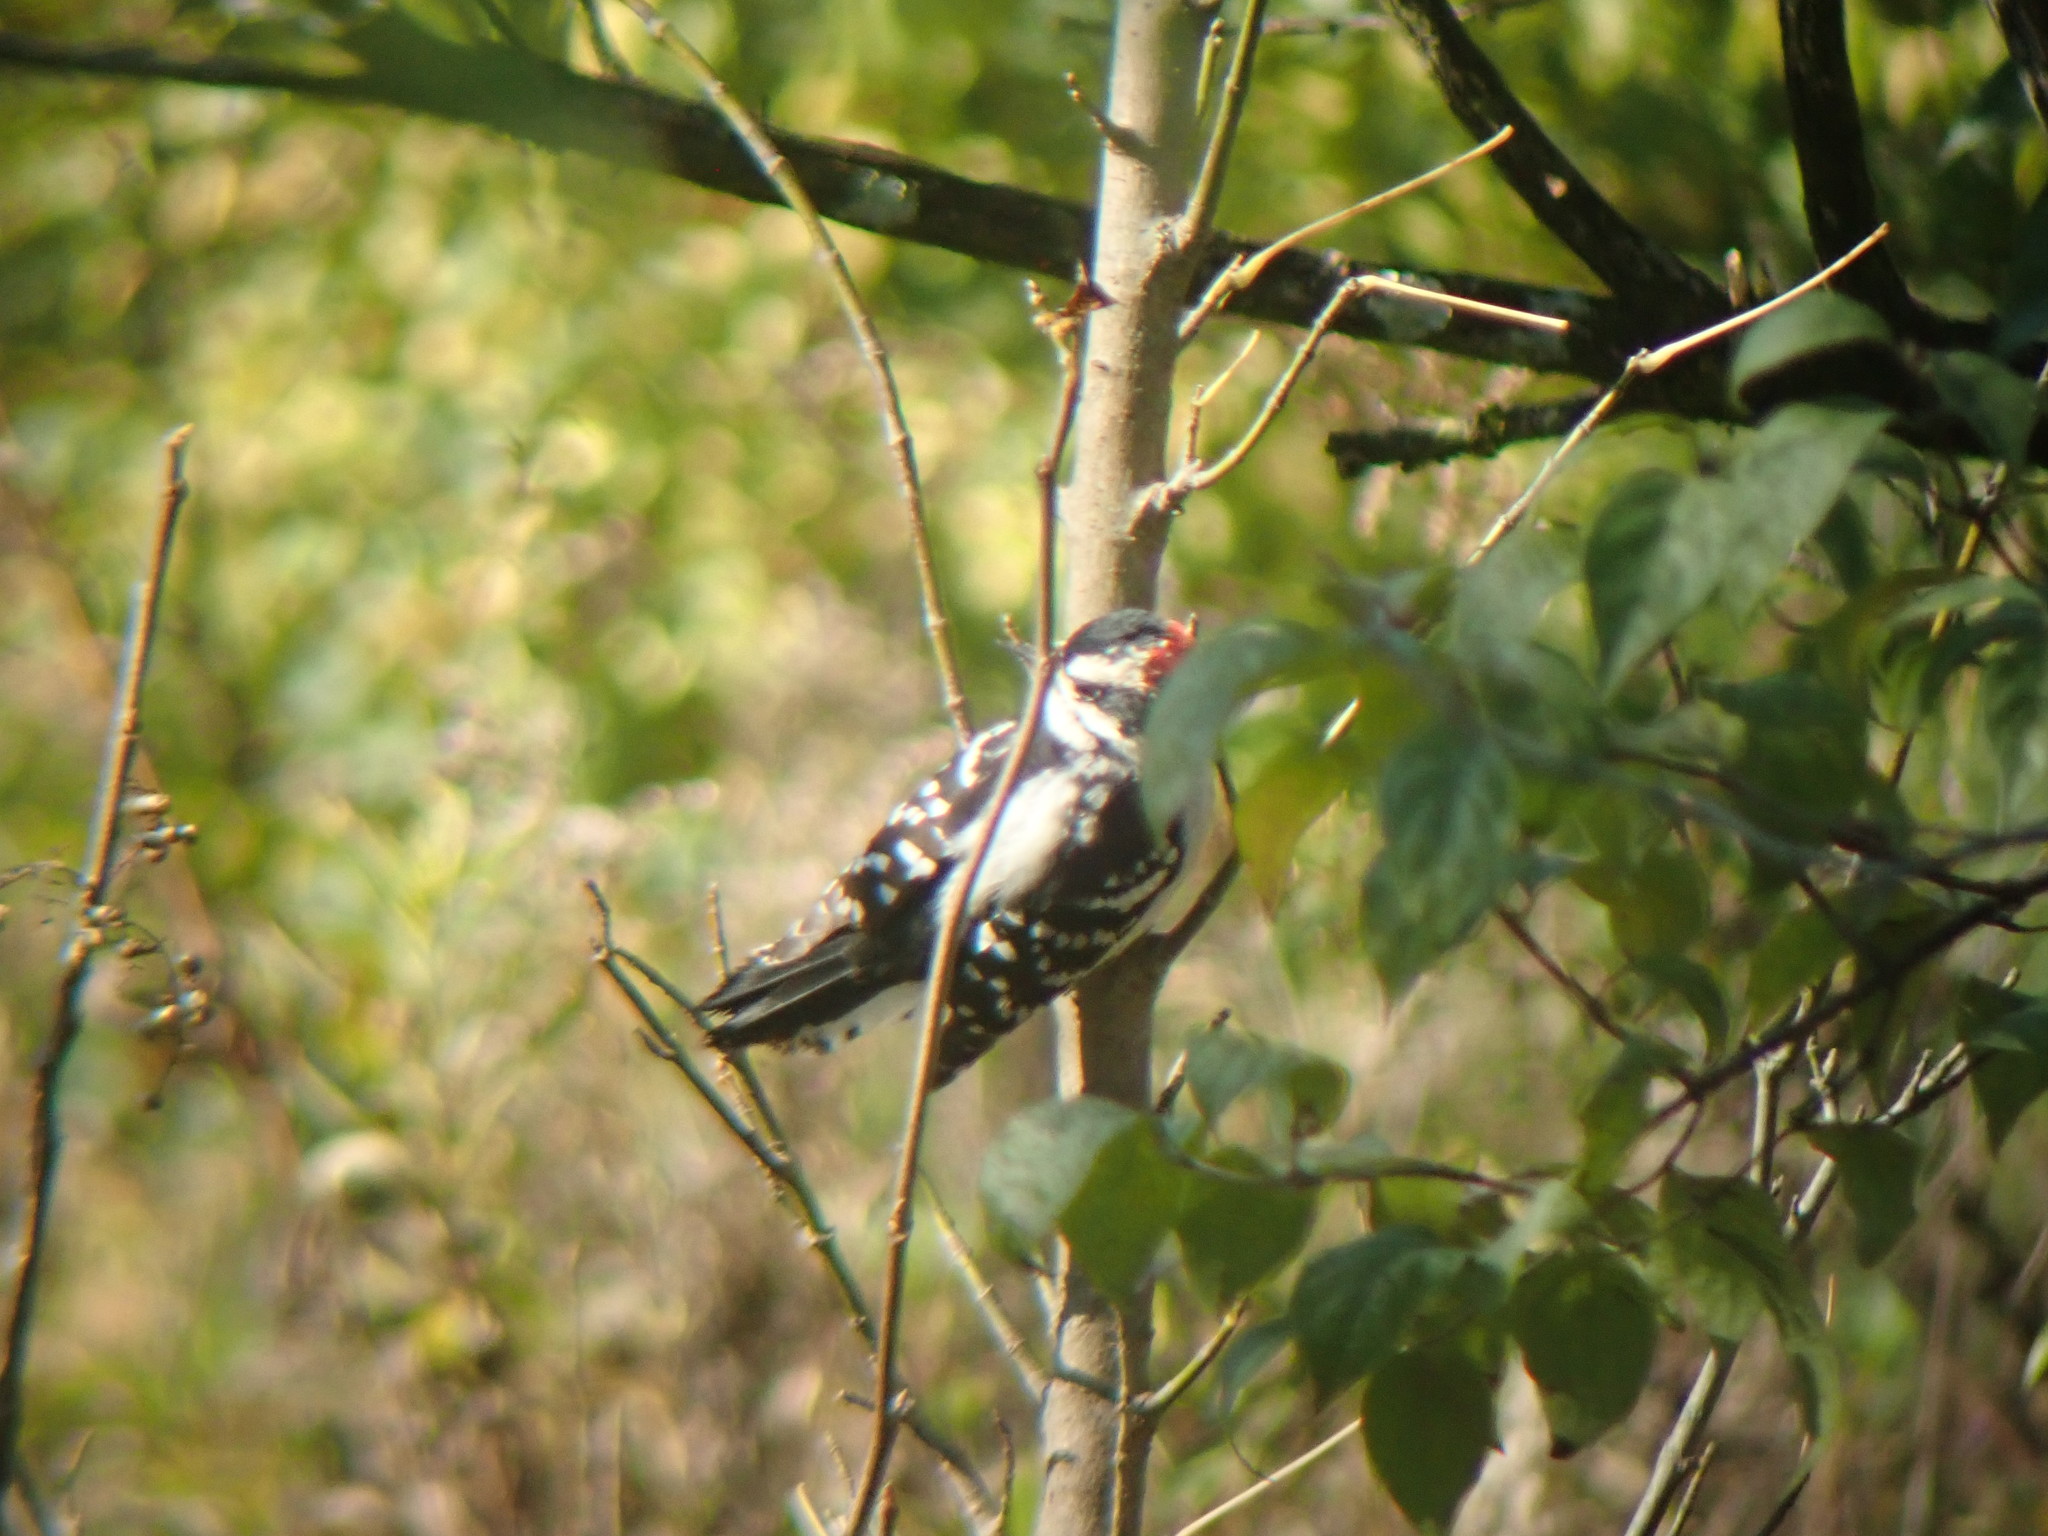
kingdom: Animalia
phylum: Chordata
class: Aves
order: Piciformes
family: Picidae
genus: Dryobates
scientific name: Dryobates pubescens
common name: Downy woodpecker
